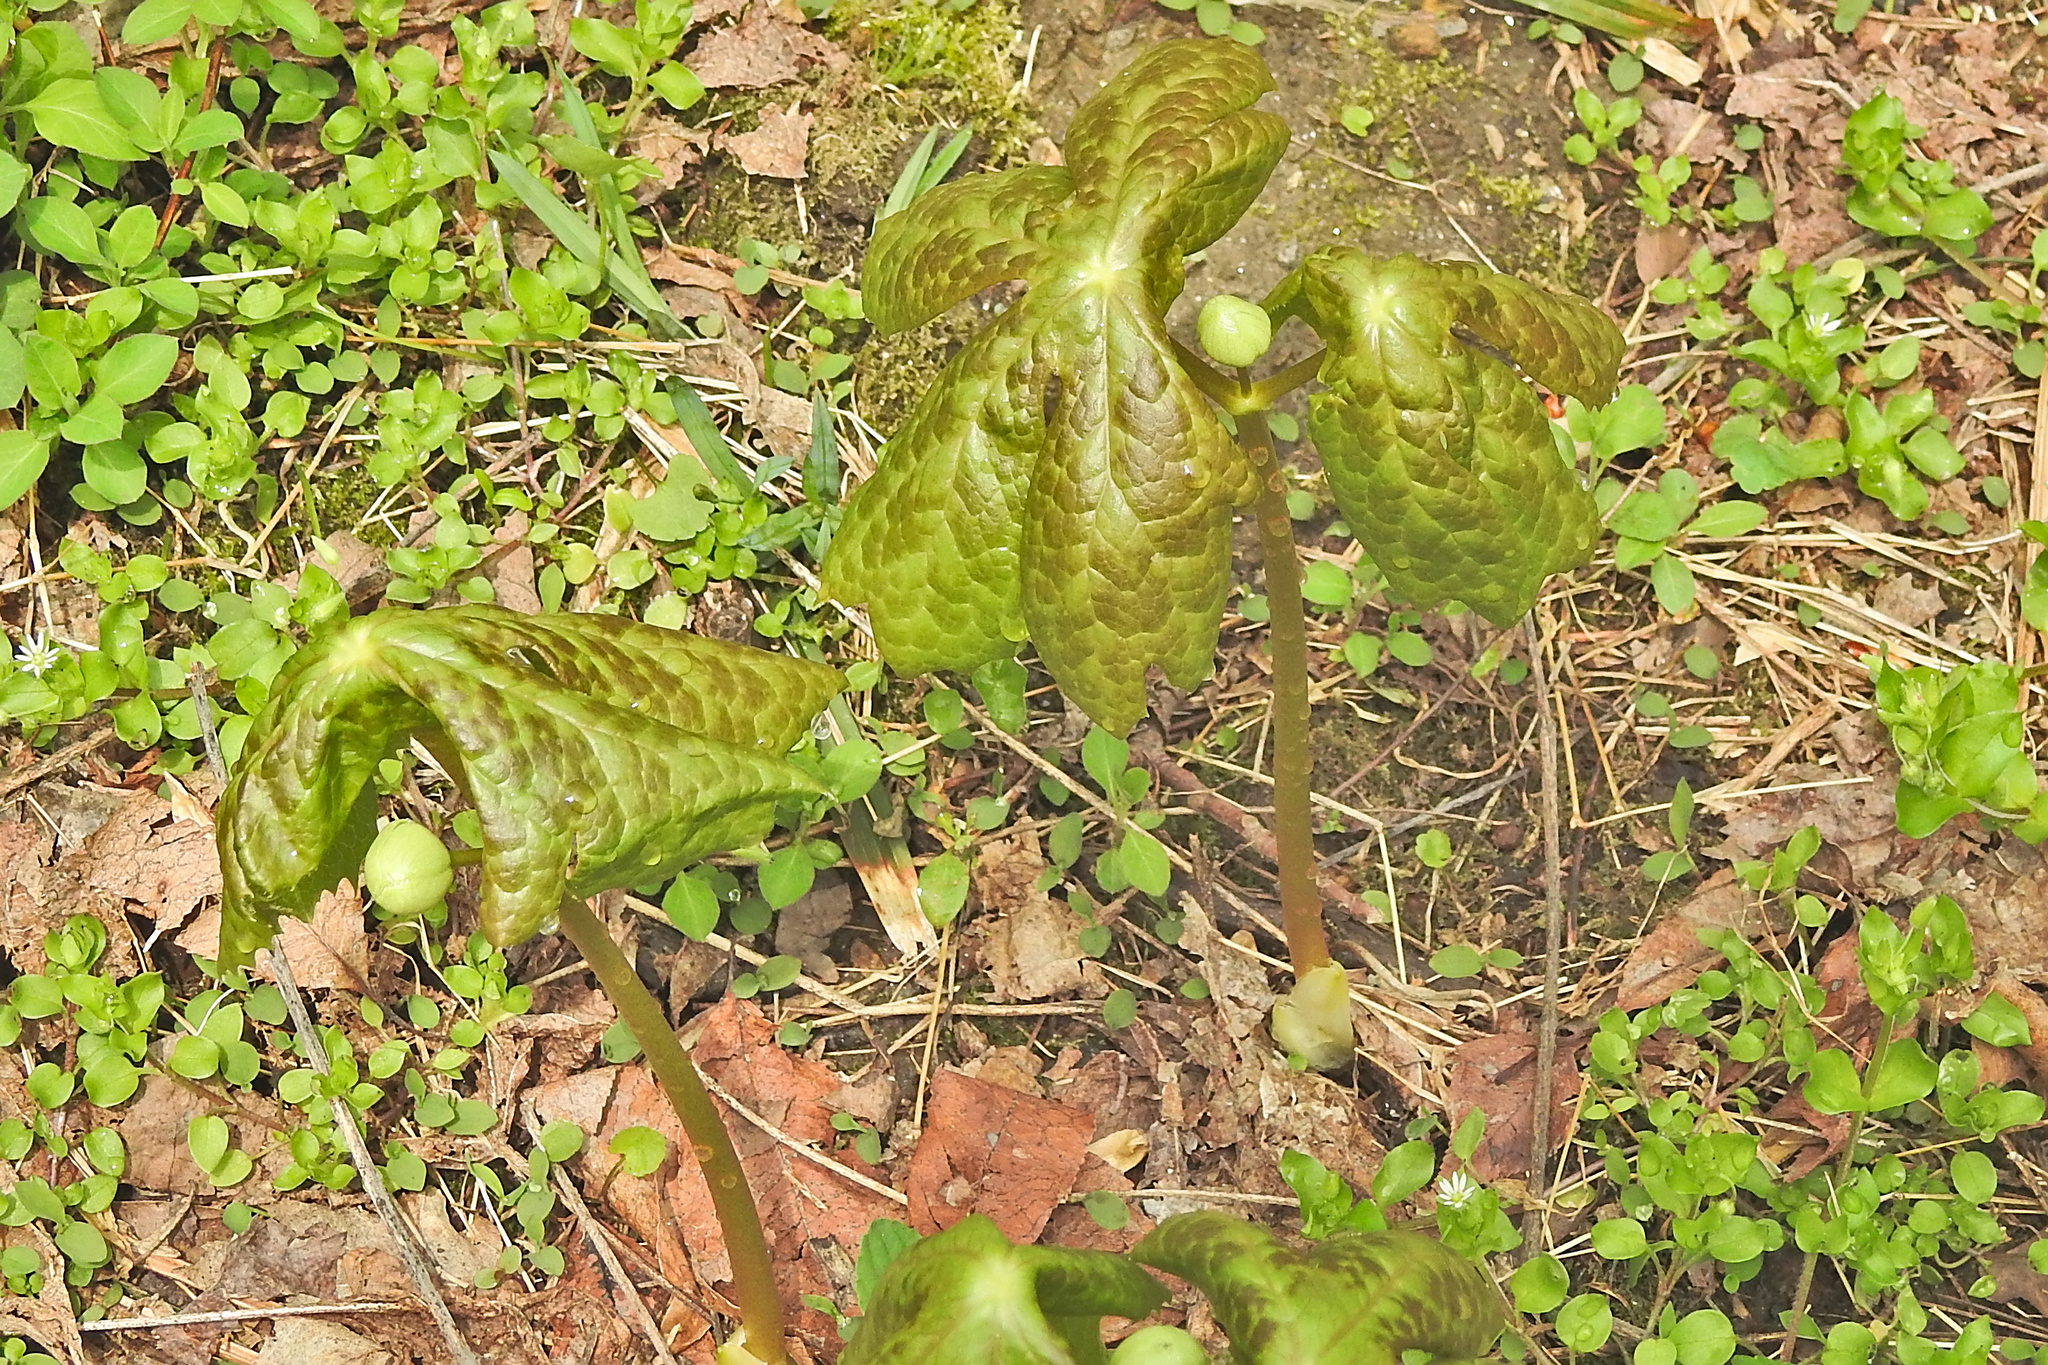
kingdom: Plantae
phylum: Tracheophyta
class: Magnoliopsida
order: Ranunculales
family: Berberidaceae
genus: Podophyllum
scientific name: Podophyllum peltatum
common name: Wild mandrake
